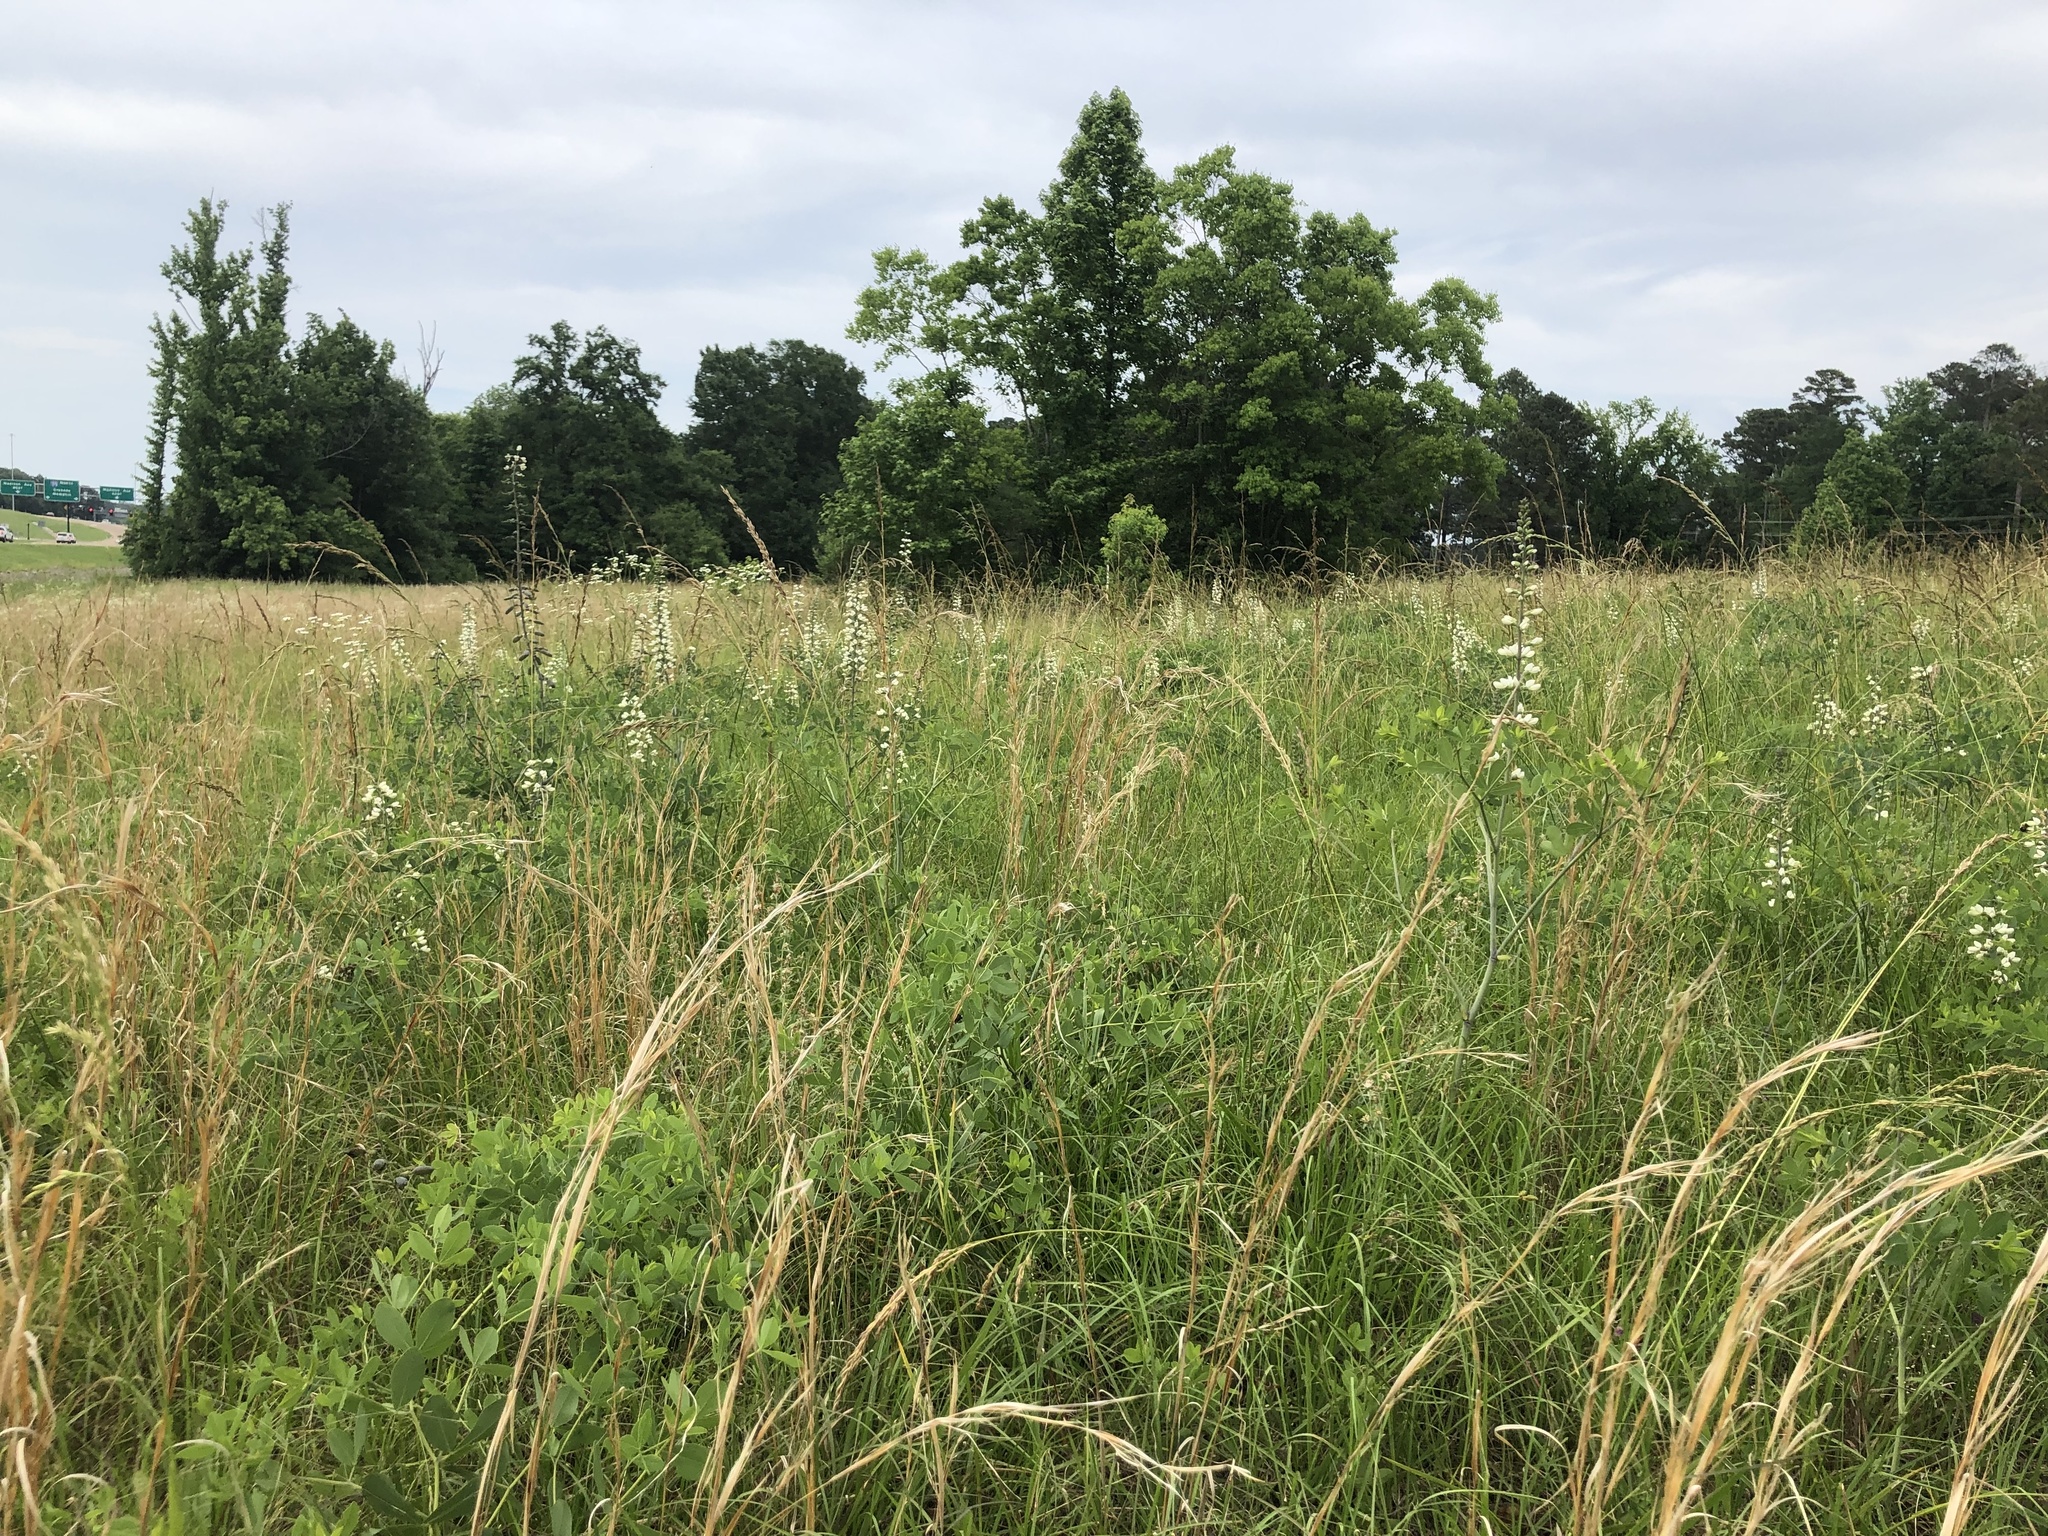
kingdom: Plantae
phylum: Tracheophyta
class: Magnoliopsida
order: Fabales
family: Fabaceae
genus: Baptisia
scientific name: Baptisia alba
